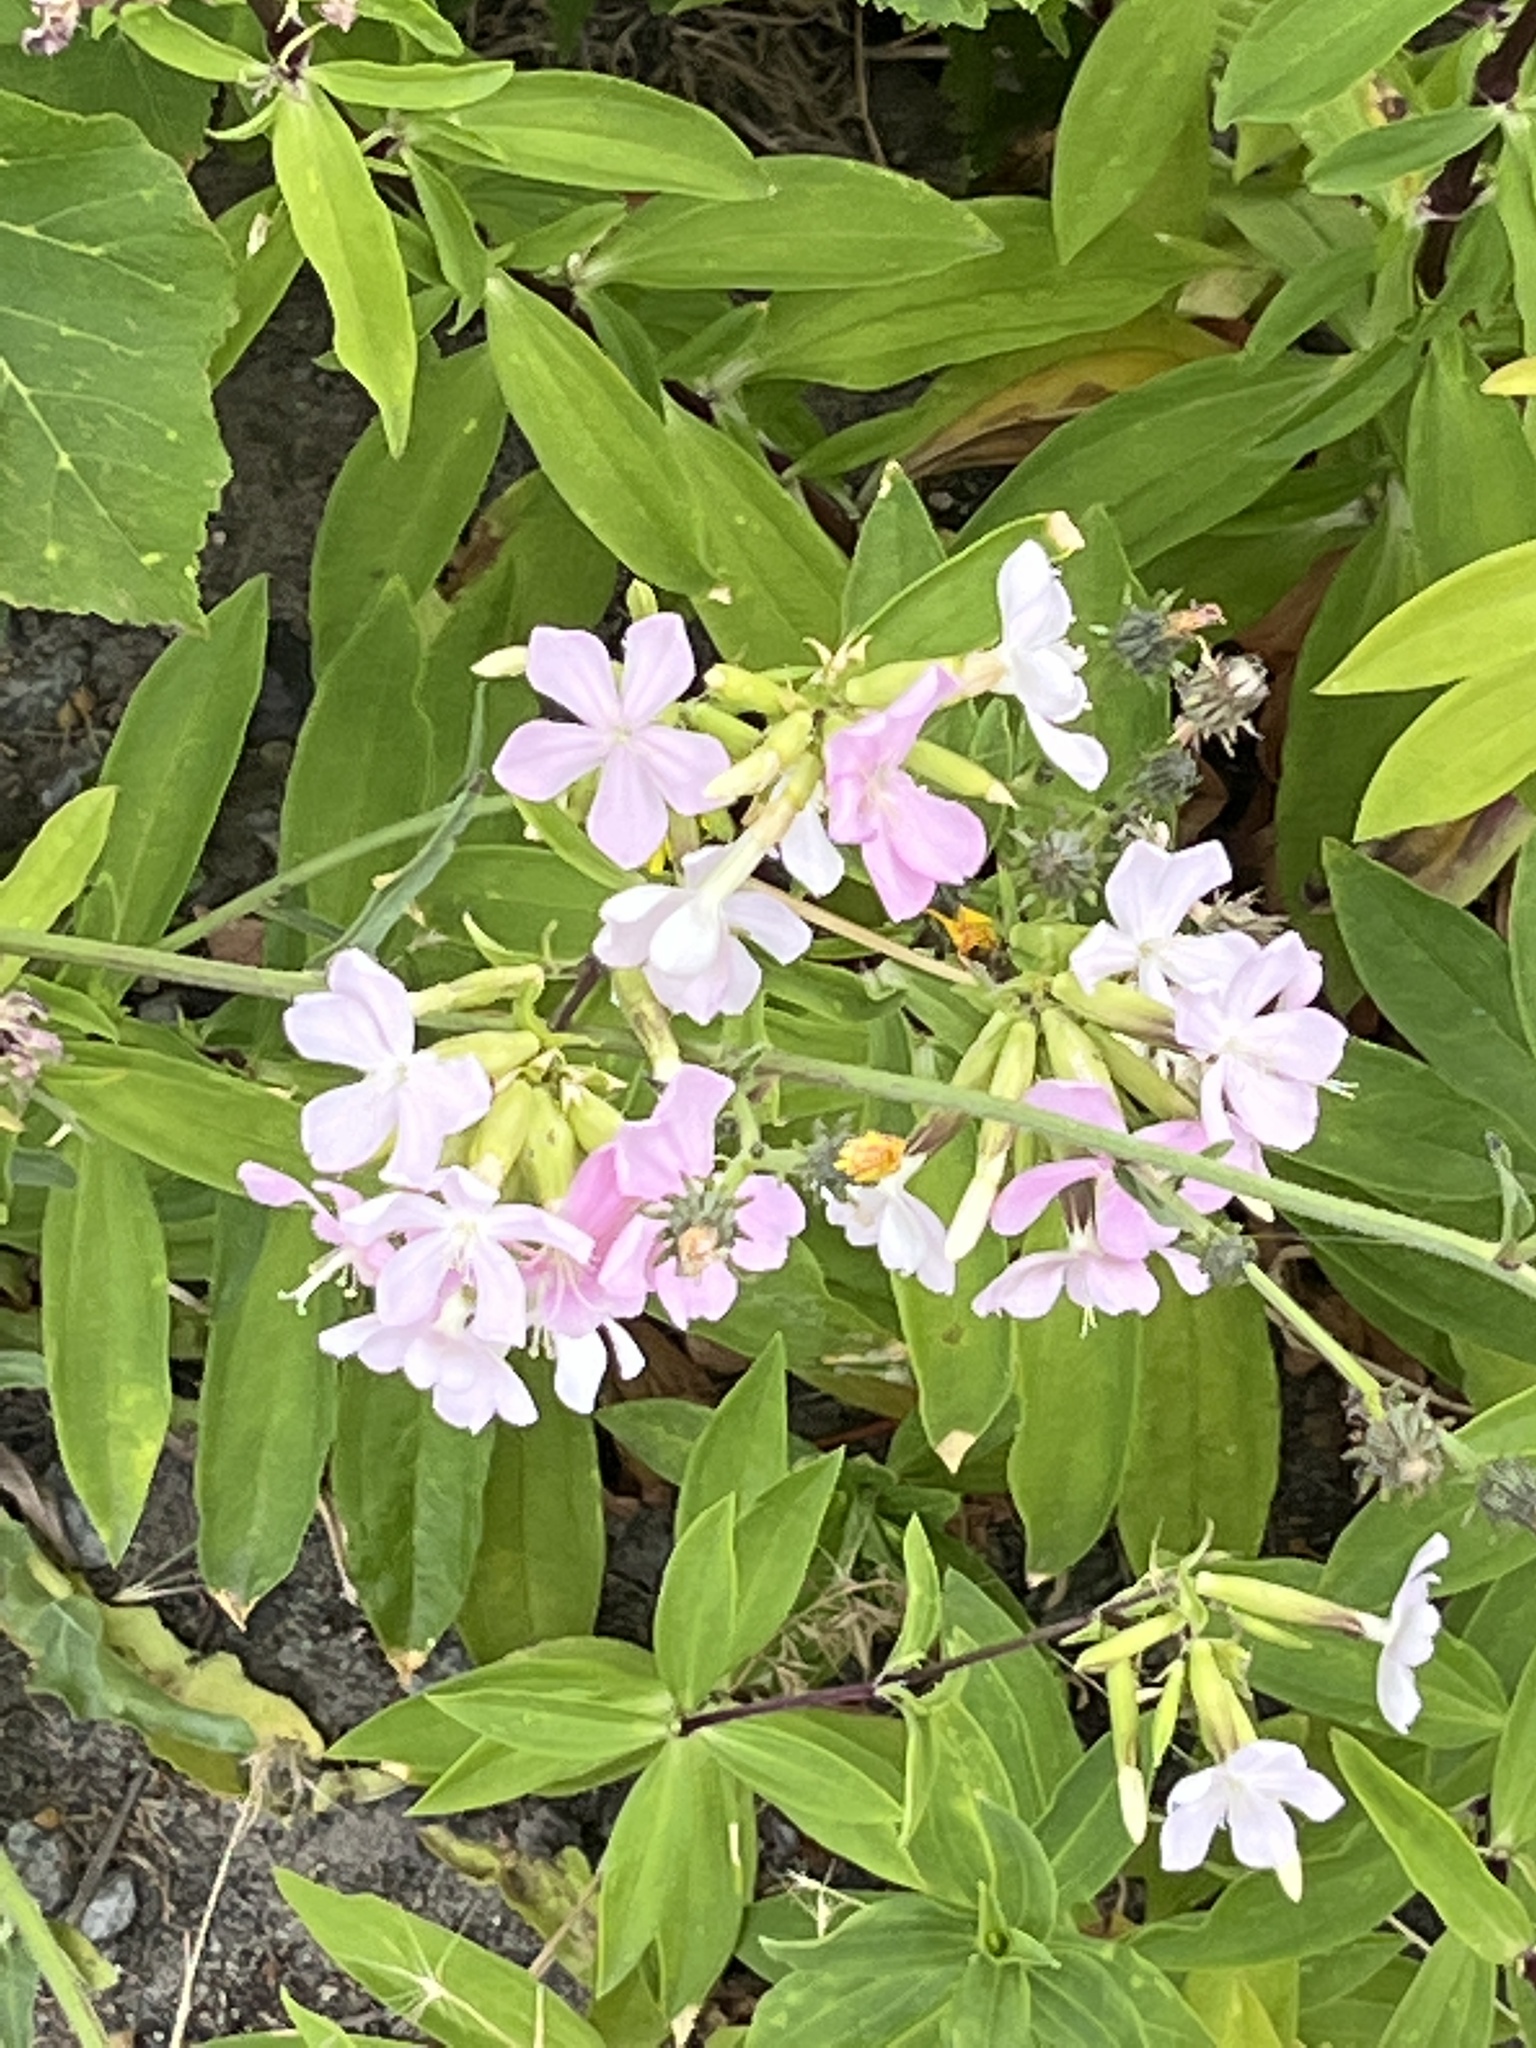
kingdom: Plantae
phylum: Tracheophyta
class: Magnoliopsida
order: Caryophyllales
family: Caryophyllaceae
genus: Saponaria
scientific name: Saponaria officinalis
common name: Soapwort
